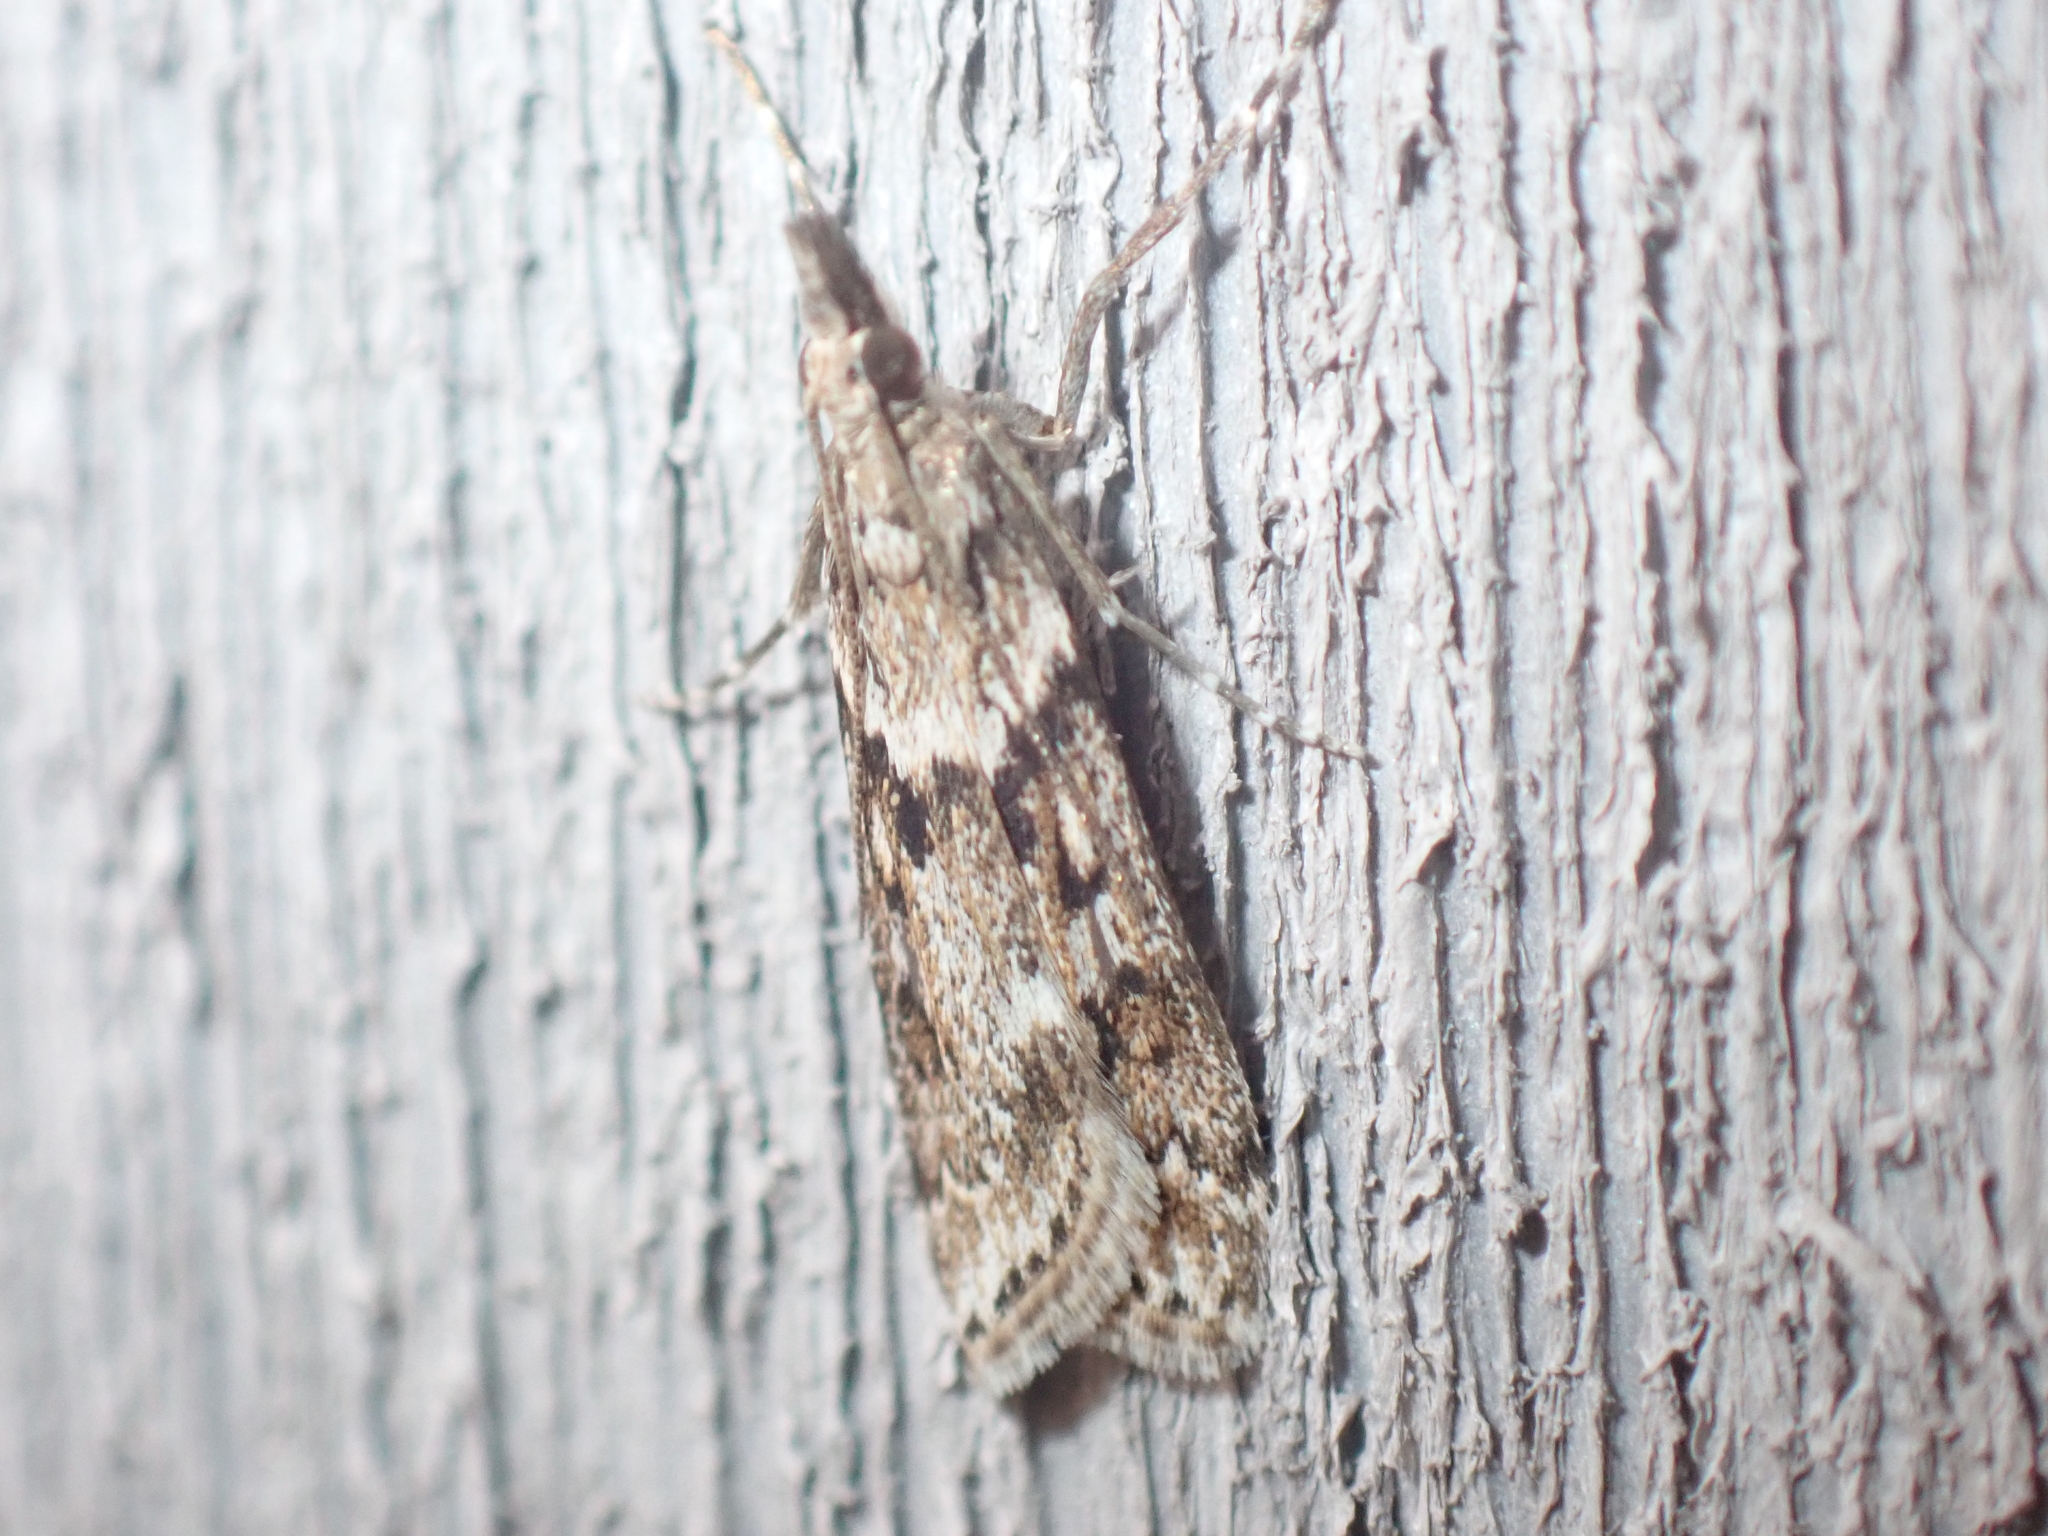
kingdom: Animalia
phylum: Arthropoda
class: Insecta
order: Lepidoptera
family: Crambidae
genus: Eudonia
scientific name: Eudonia angustea
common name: Narrow-winged grey
